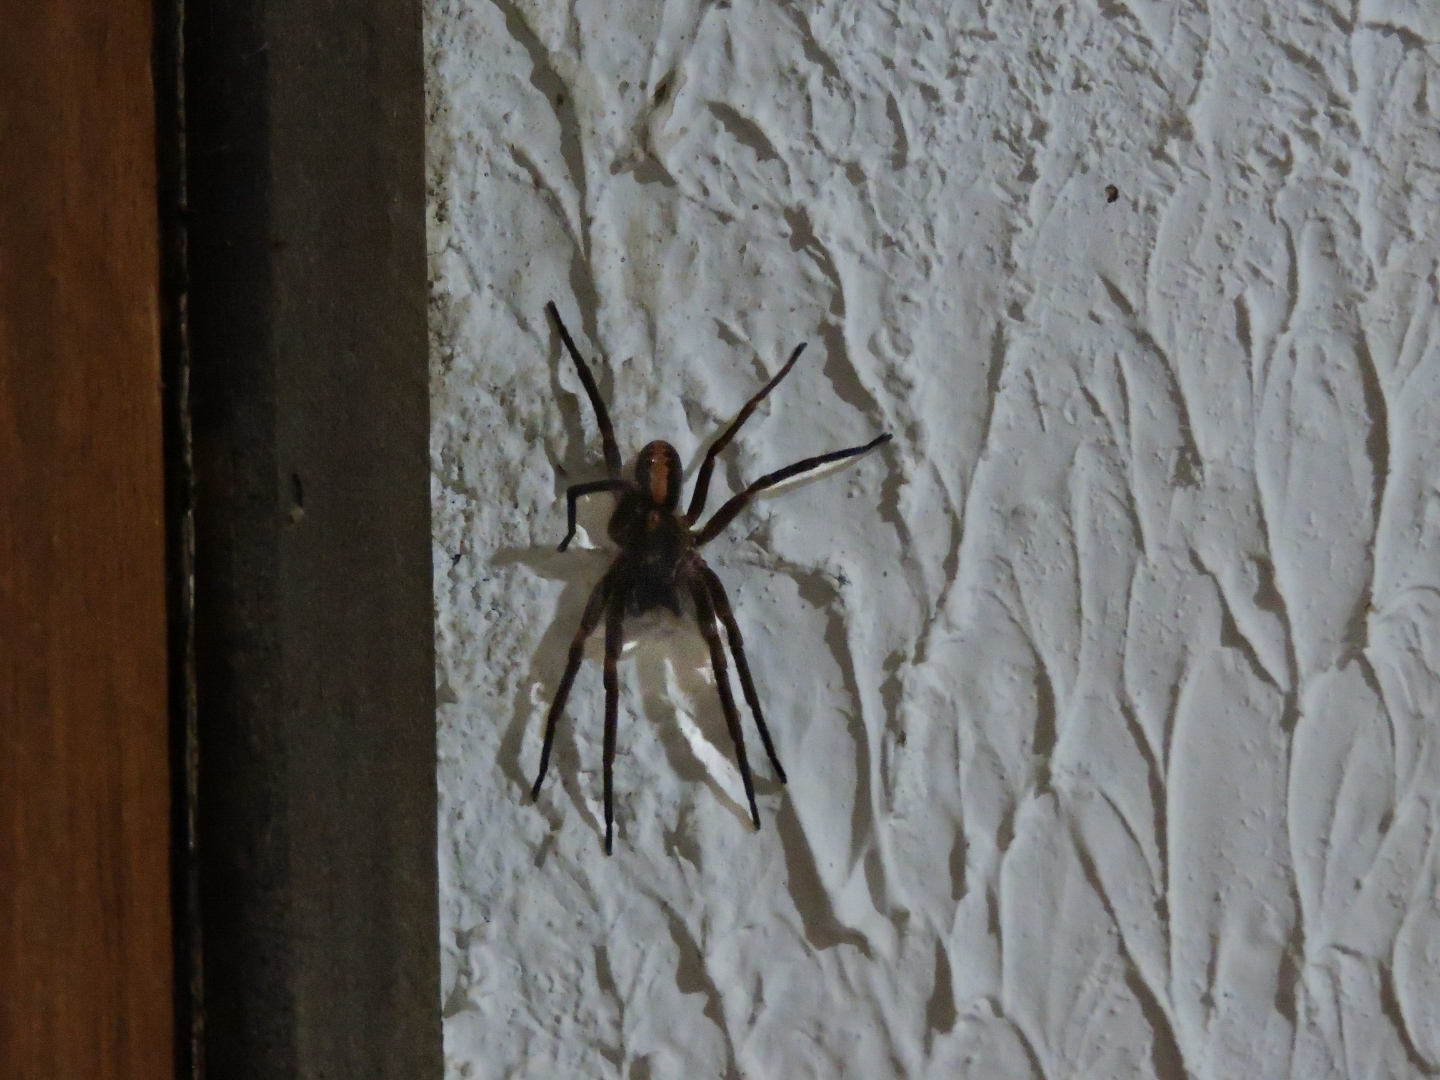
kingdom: Animalia
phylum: Arthropoda
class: Arachnida
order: Araneae
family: Ctenidae
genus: Guasuctenus
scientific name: Guasuctenus vittatissimus
